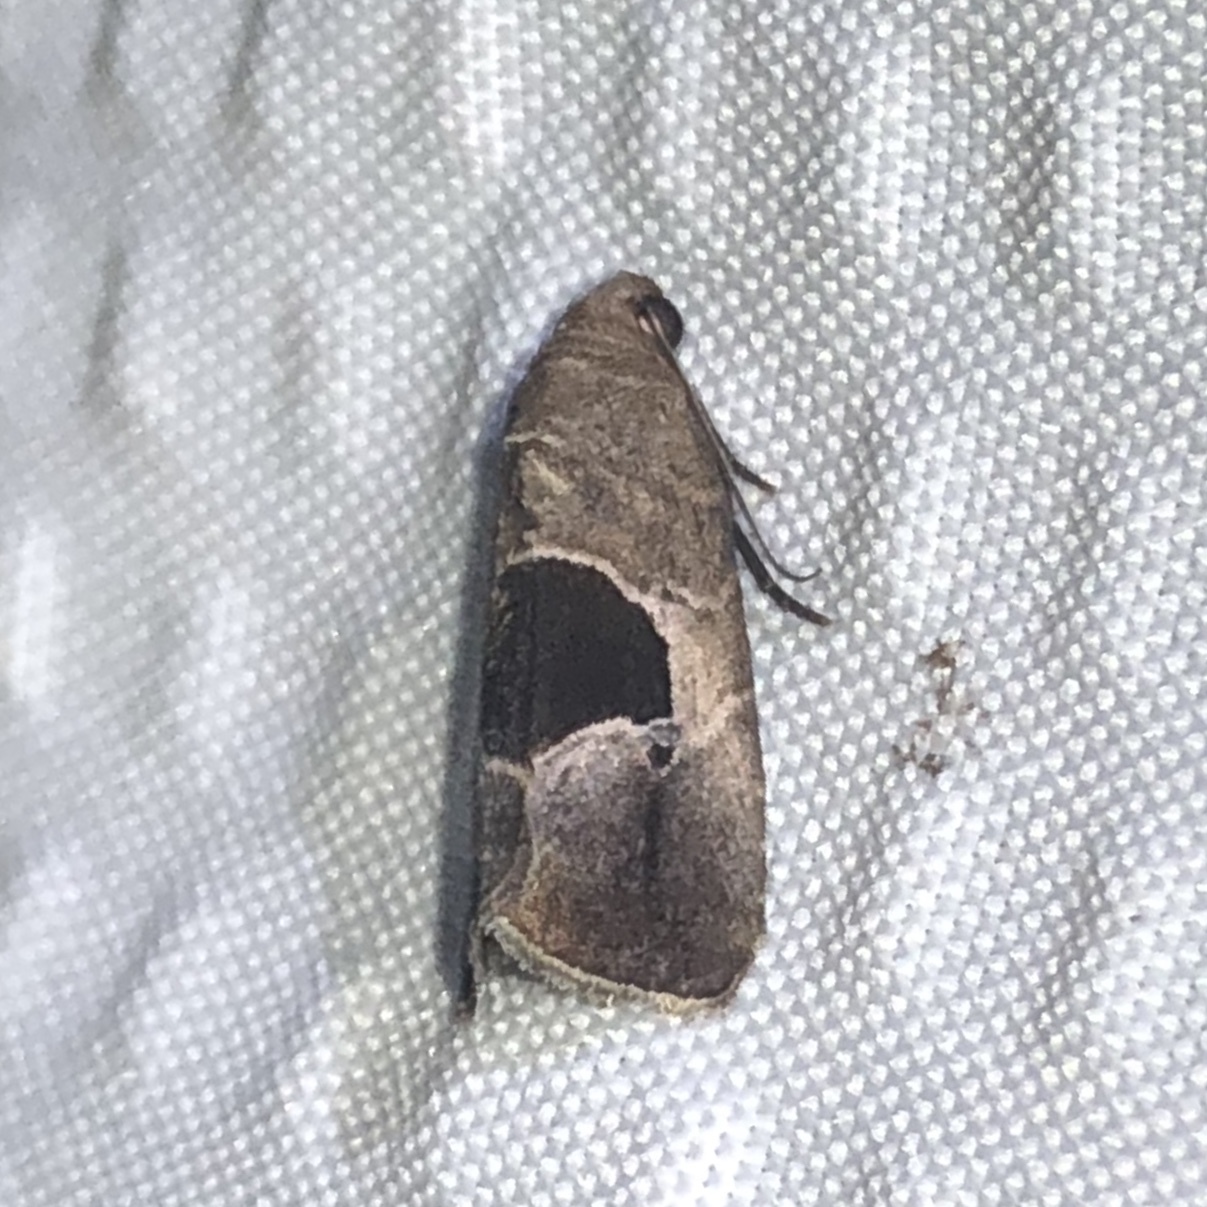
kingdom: Animalia
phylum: Arthropoda
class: Insecta
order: Lepidoptera
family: Noctuidae
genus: Elaphria
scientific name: Elaphria deltoides
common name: Cutworm moth
